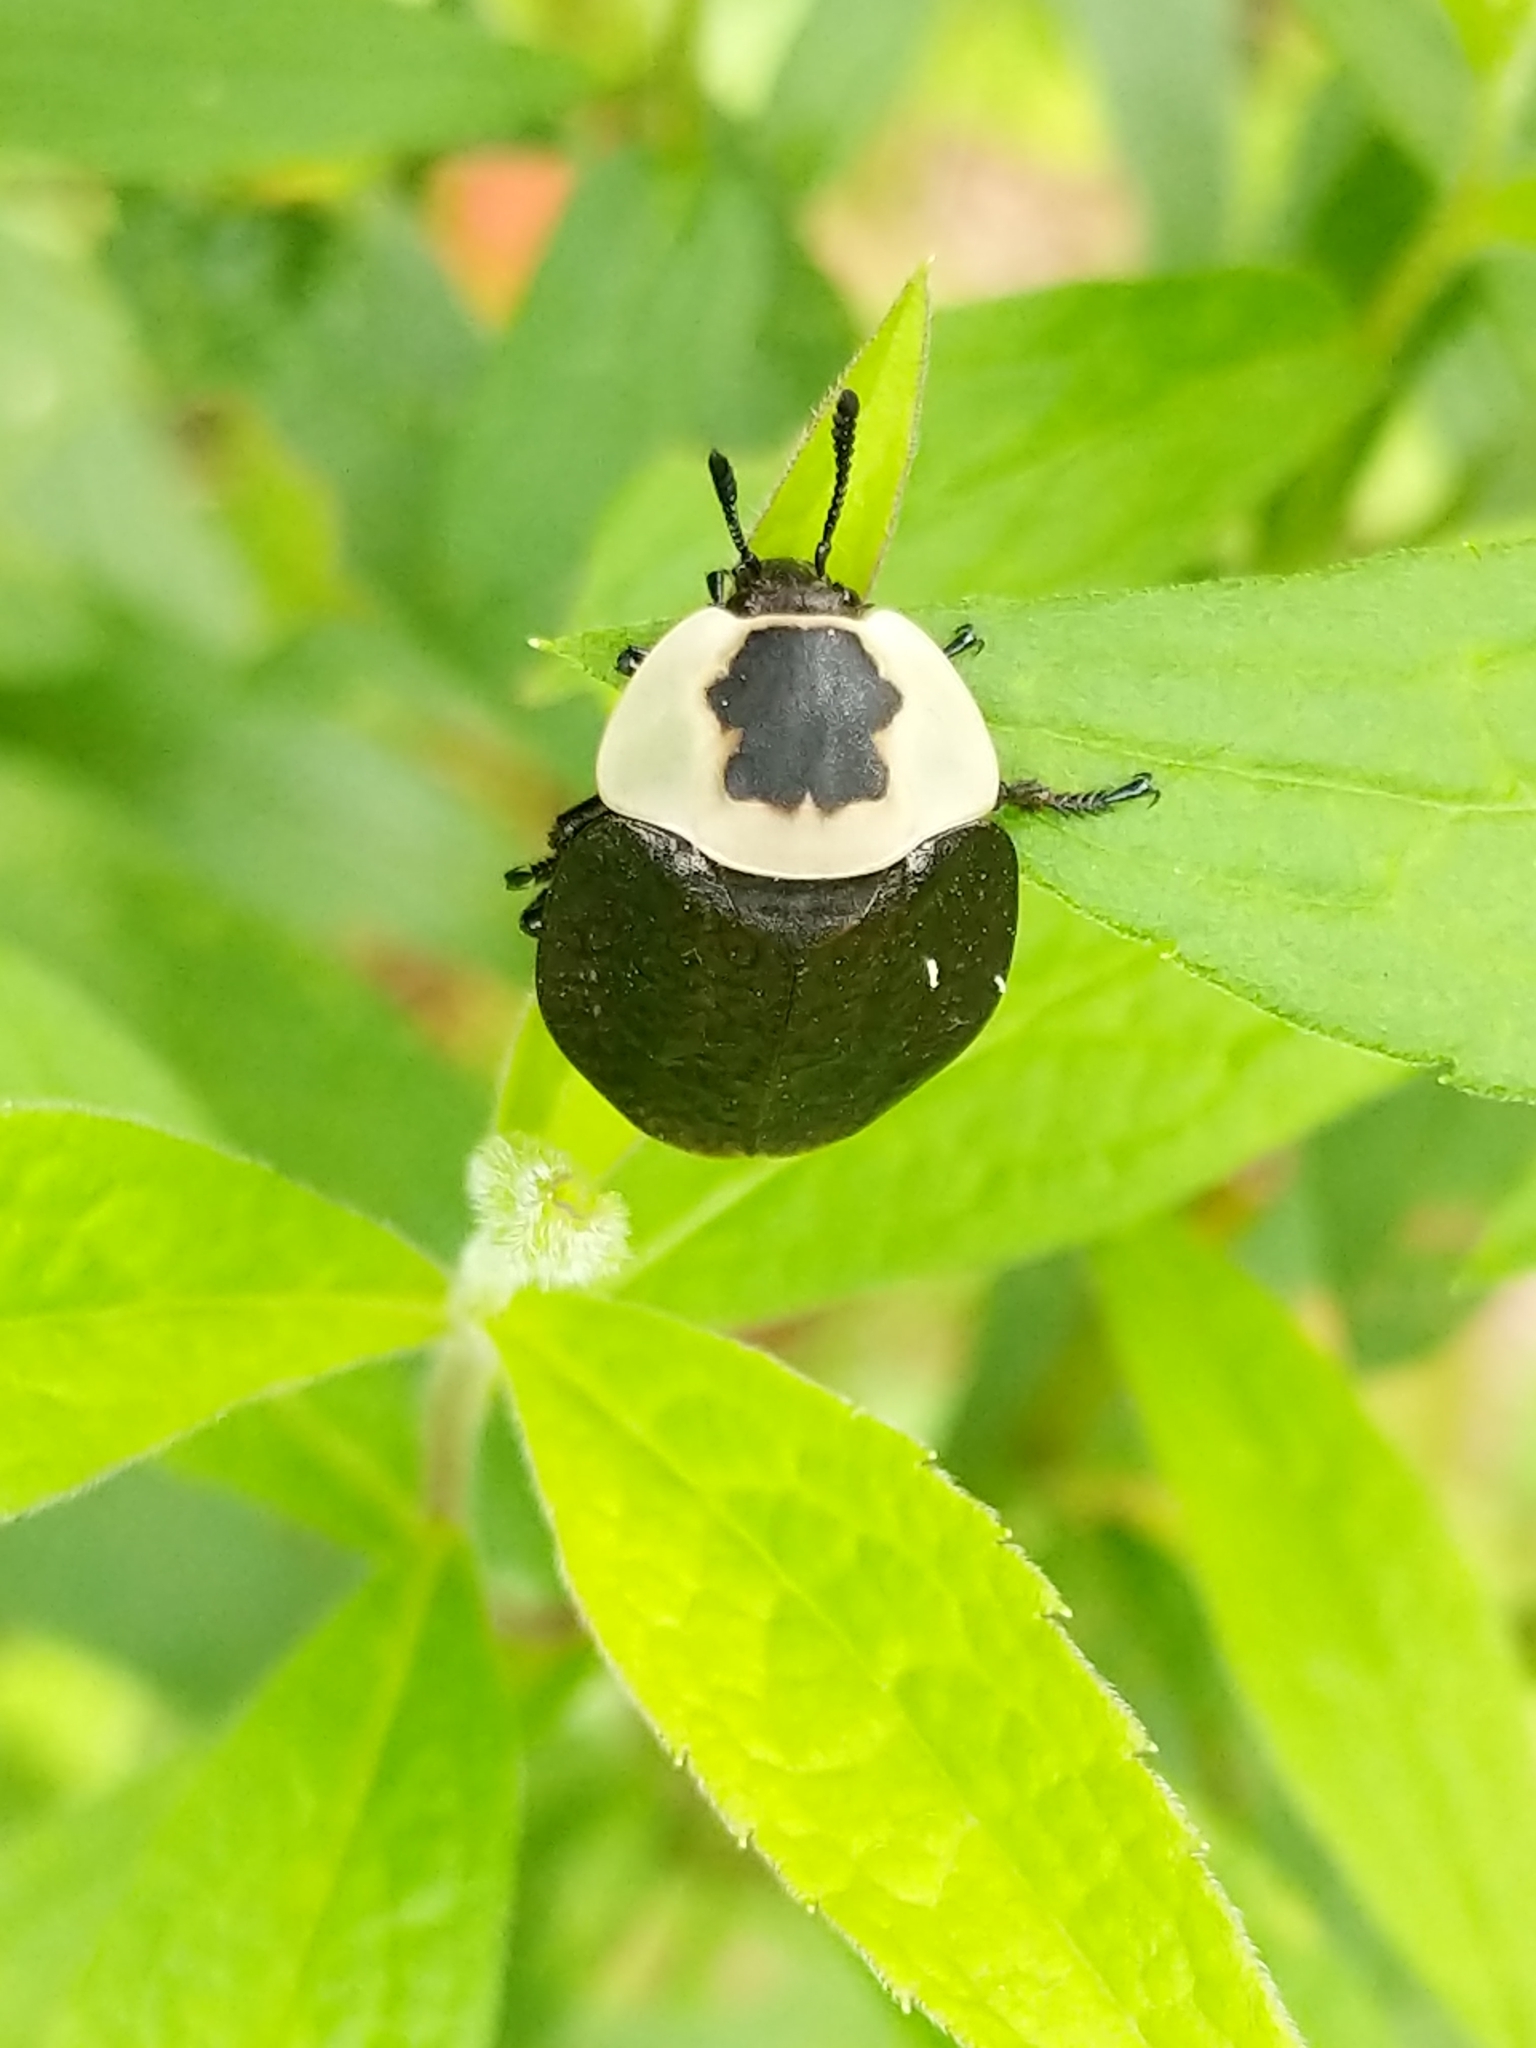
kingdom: Animalia
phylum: Arthropoda
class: Insecta
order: Coleoptera
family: Staphylinidae
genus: Necrophila
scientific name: Necrophila americana
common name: American carrion beetle
